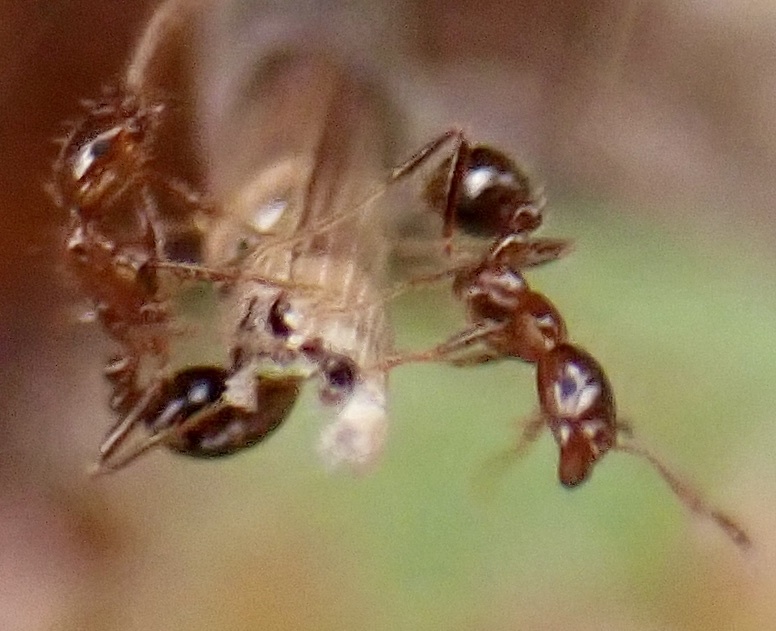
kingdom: Animalia
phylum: Arthropoda
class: Insecta
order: Hymenoptera
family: Formicidae
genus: Solenopsis
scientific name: Solenopsis invicta
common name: Red imported fire ant
